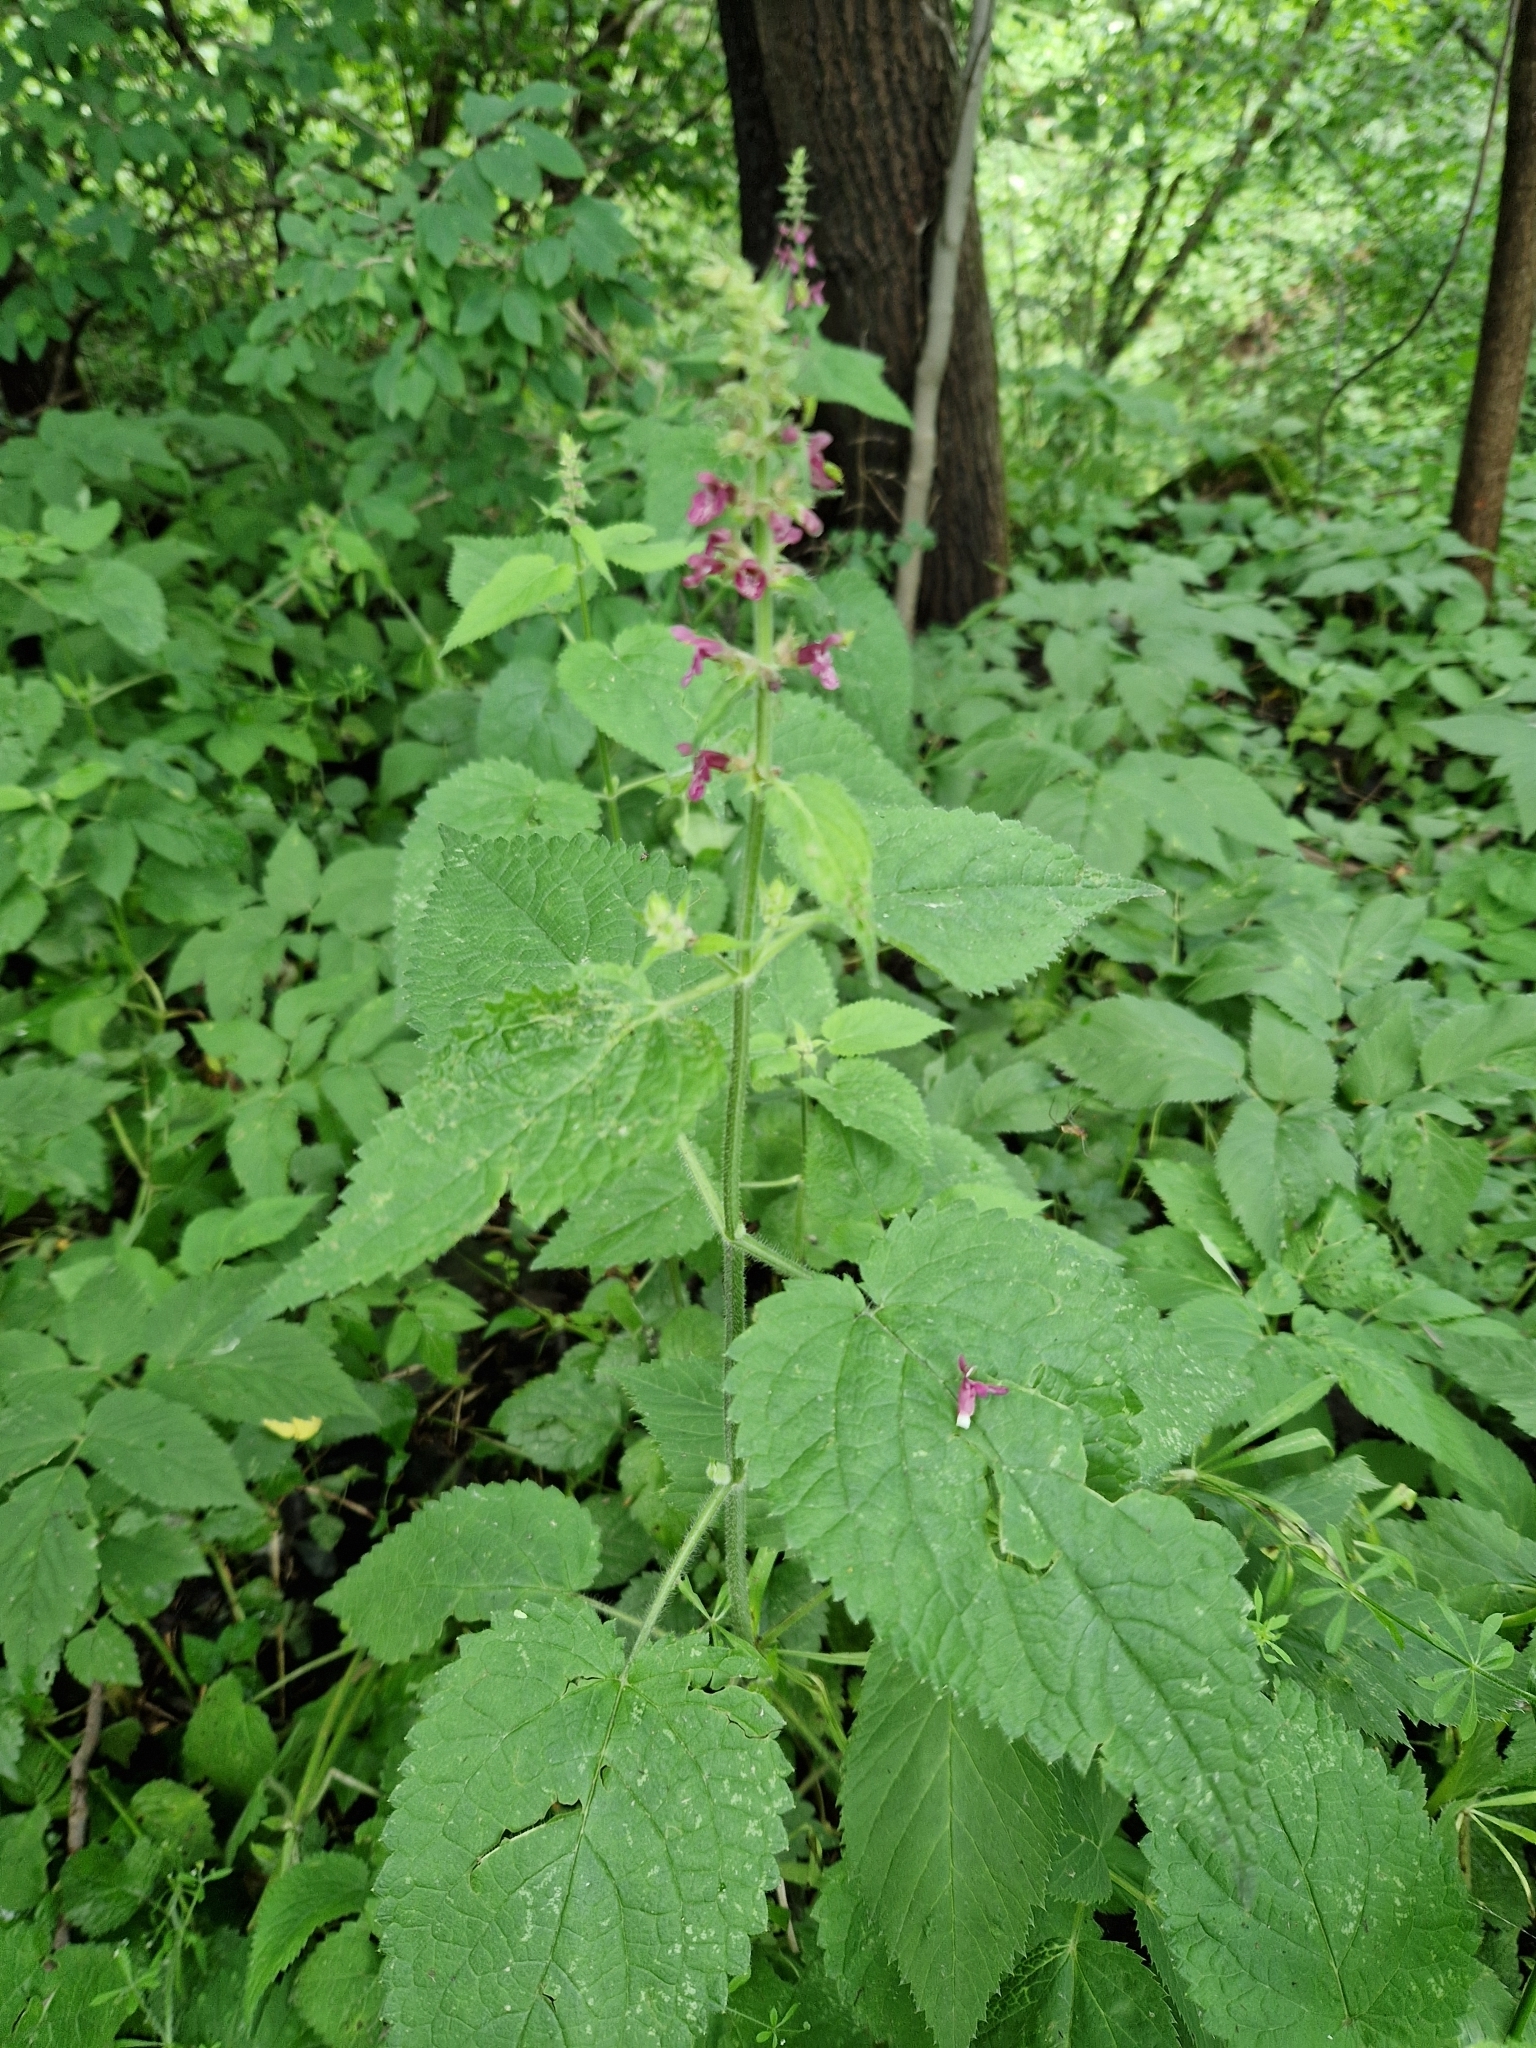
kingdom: Plantae
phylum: Tracheophyta
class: Magnoliopsida
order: Lamiales
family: Lamiaceae
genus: Stachys
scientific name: Stachys sylvatica
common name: Hedge woundwort
